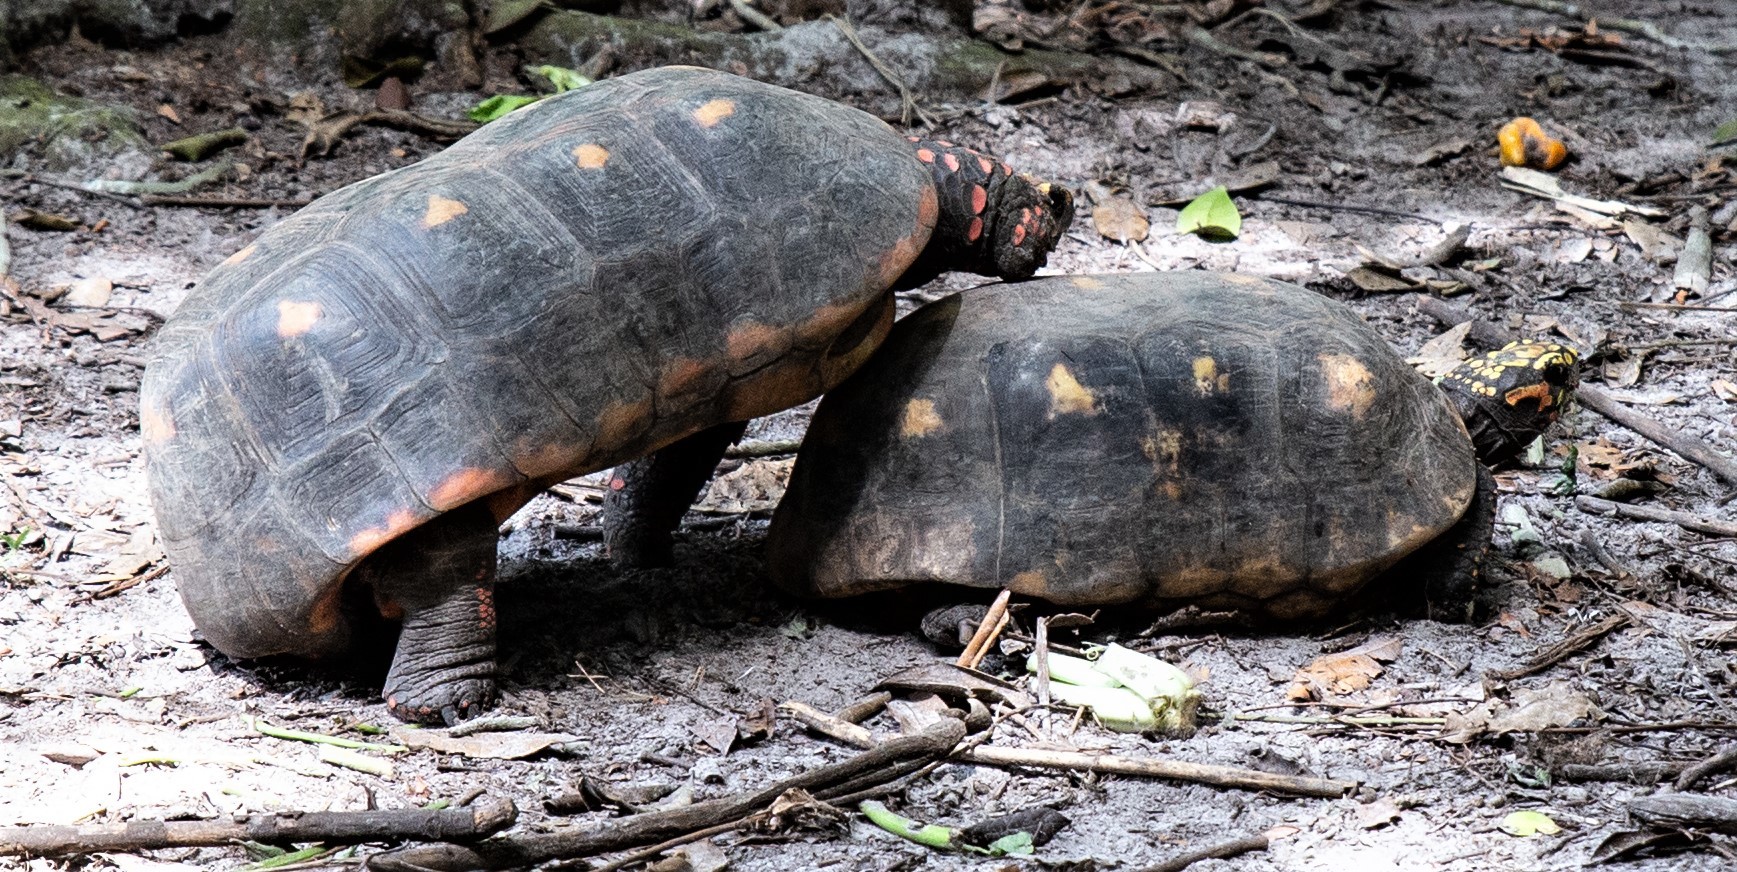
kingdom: Animalia
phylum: Chordata
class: Testudines
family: Testudinidae
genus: Chelonoidis
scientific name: Chelonoidis carbonarius
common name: Red-footed tortoise
